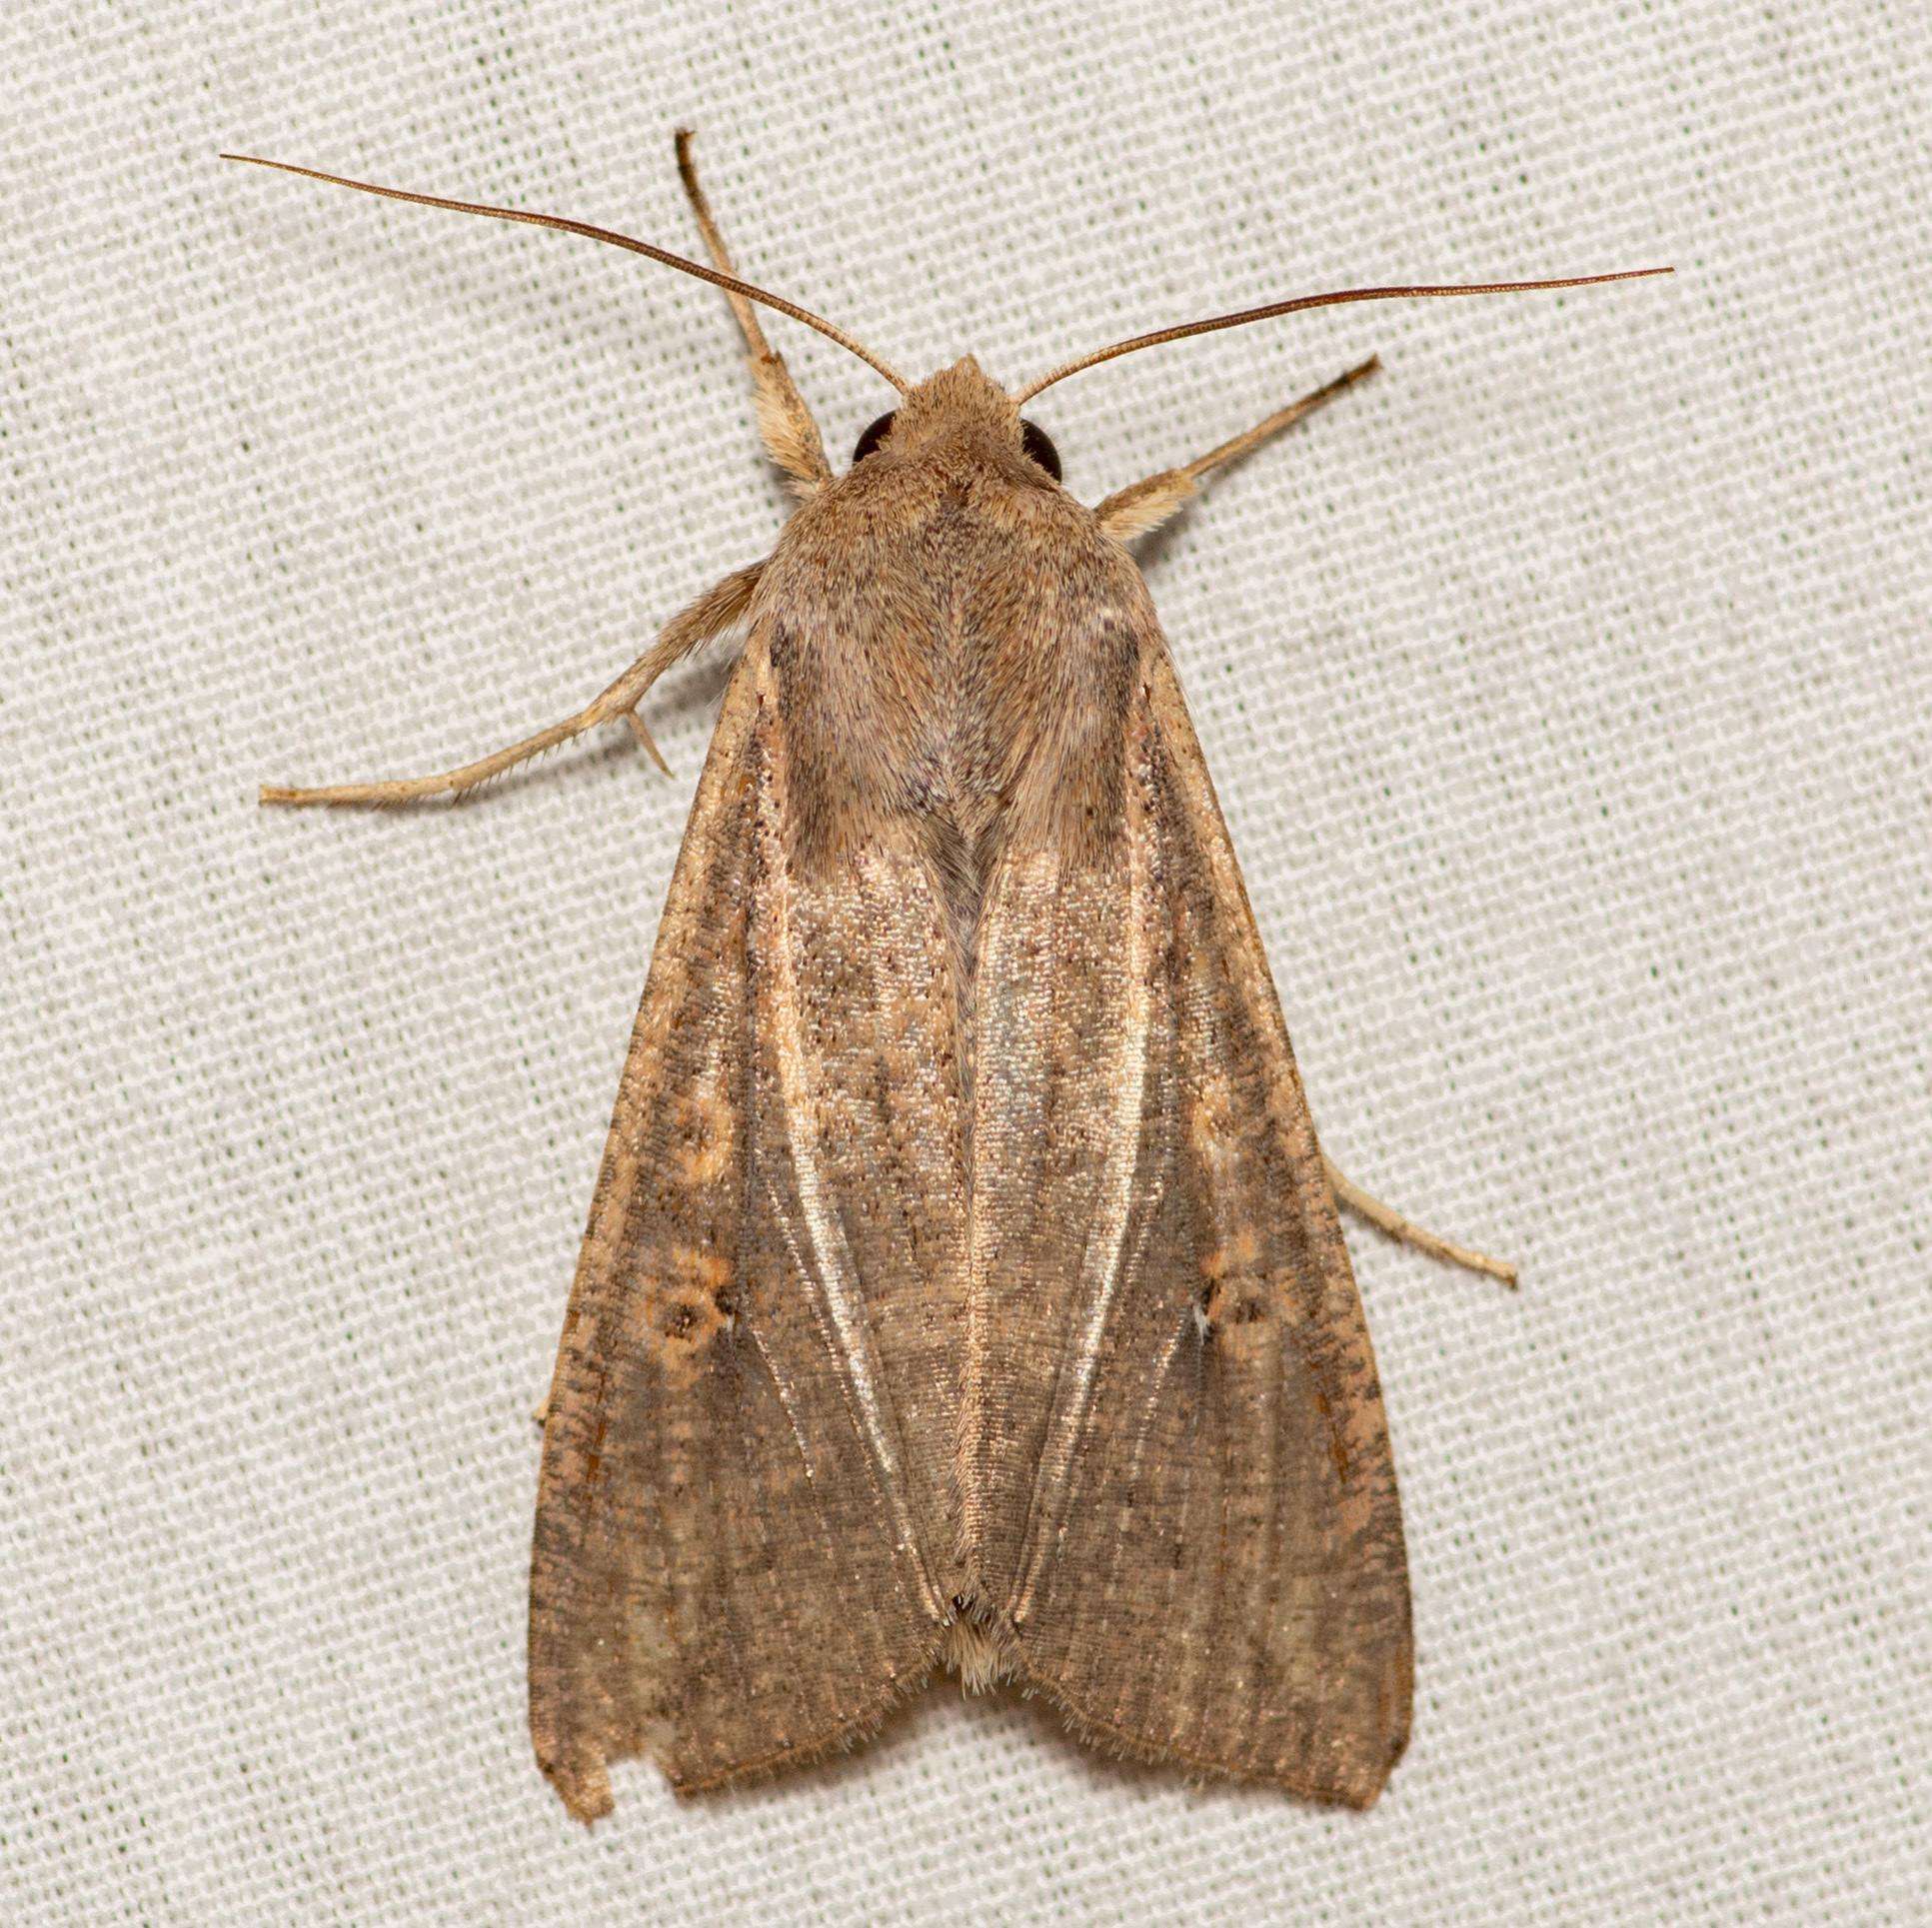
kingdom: Animalia
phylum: Arthropoda
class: Insecta
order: Lepidoptera
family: Noctuidae
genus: Mythimna
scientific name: Mythimna unipuncta
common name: White-speck
